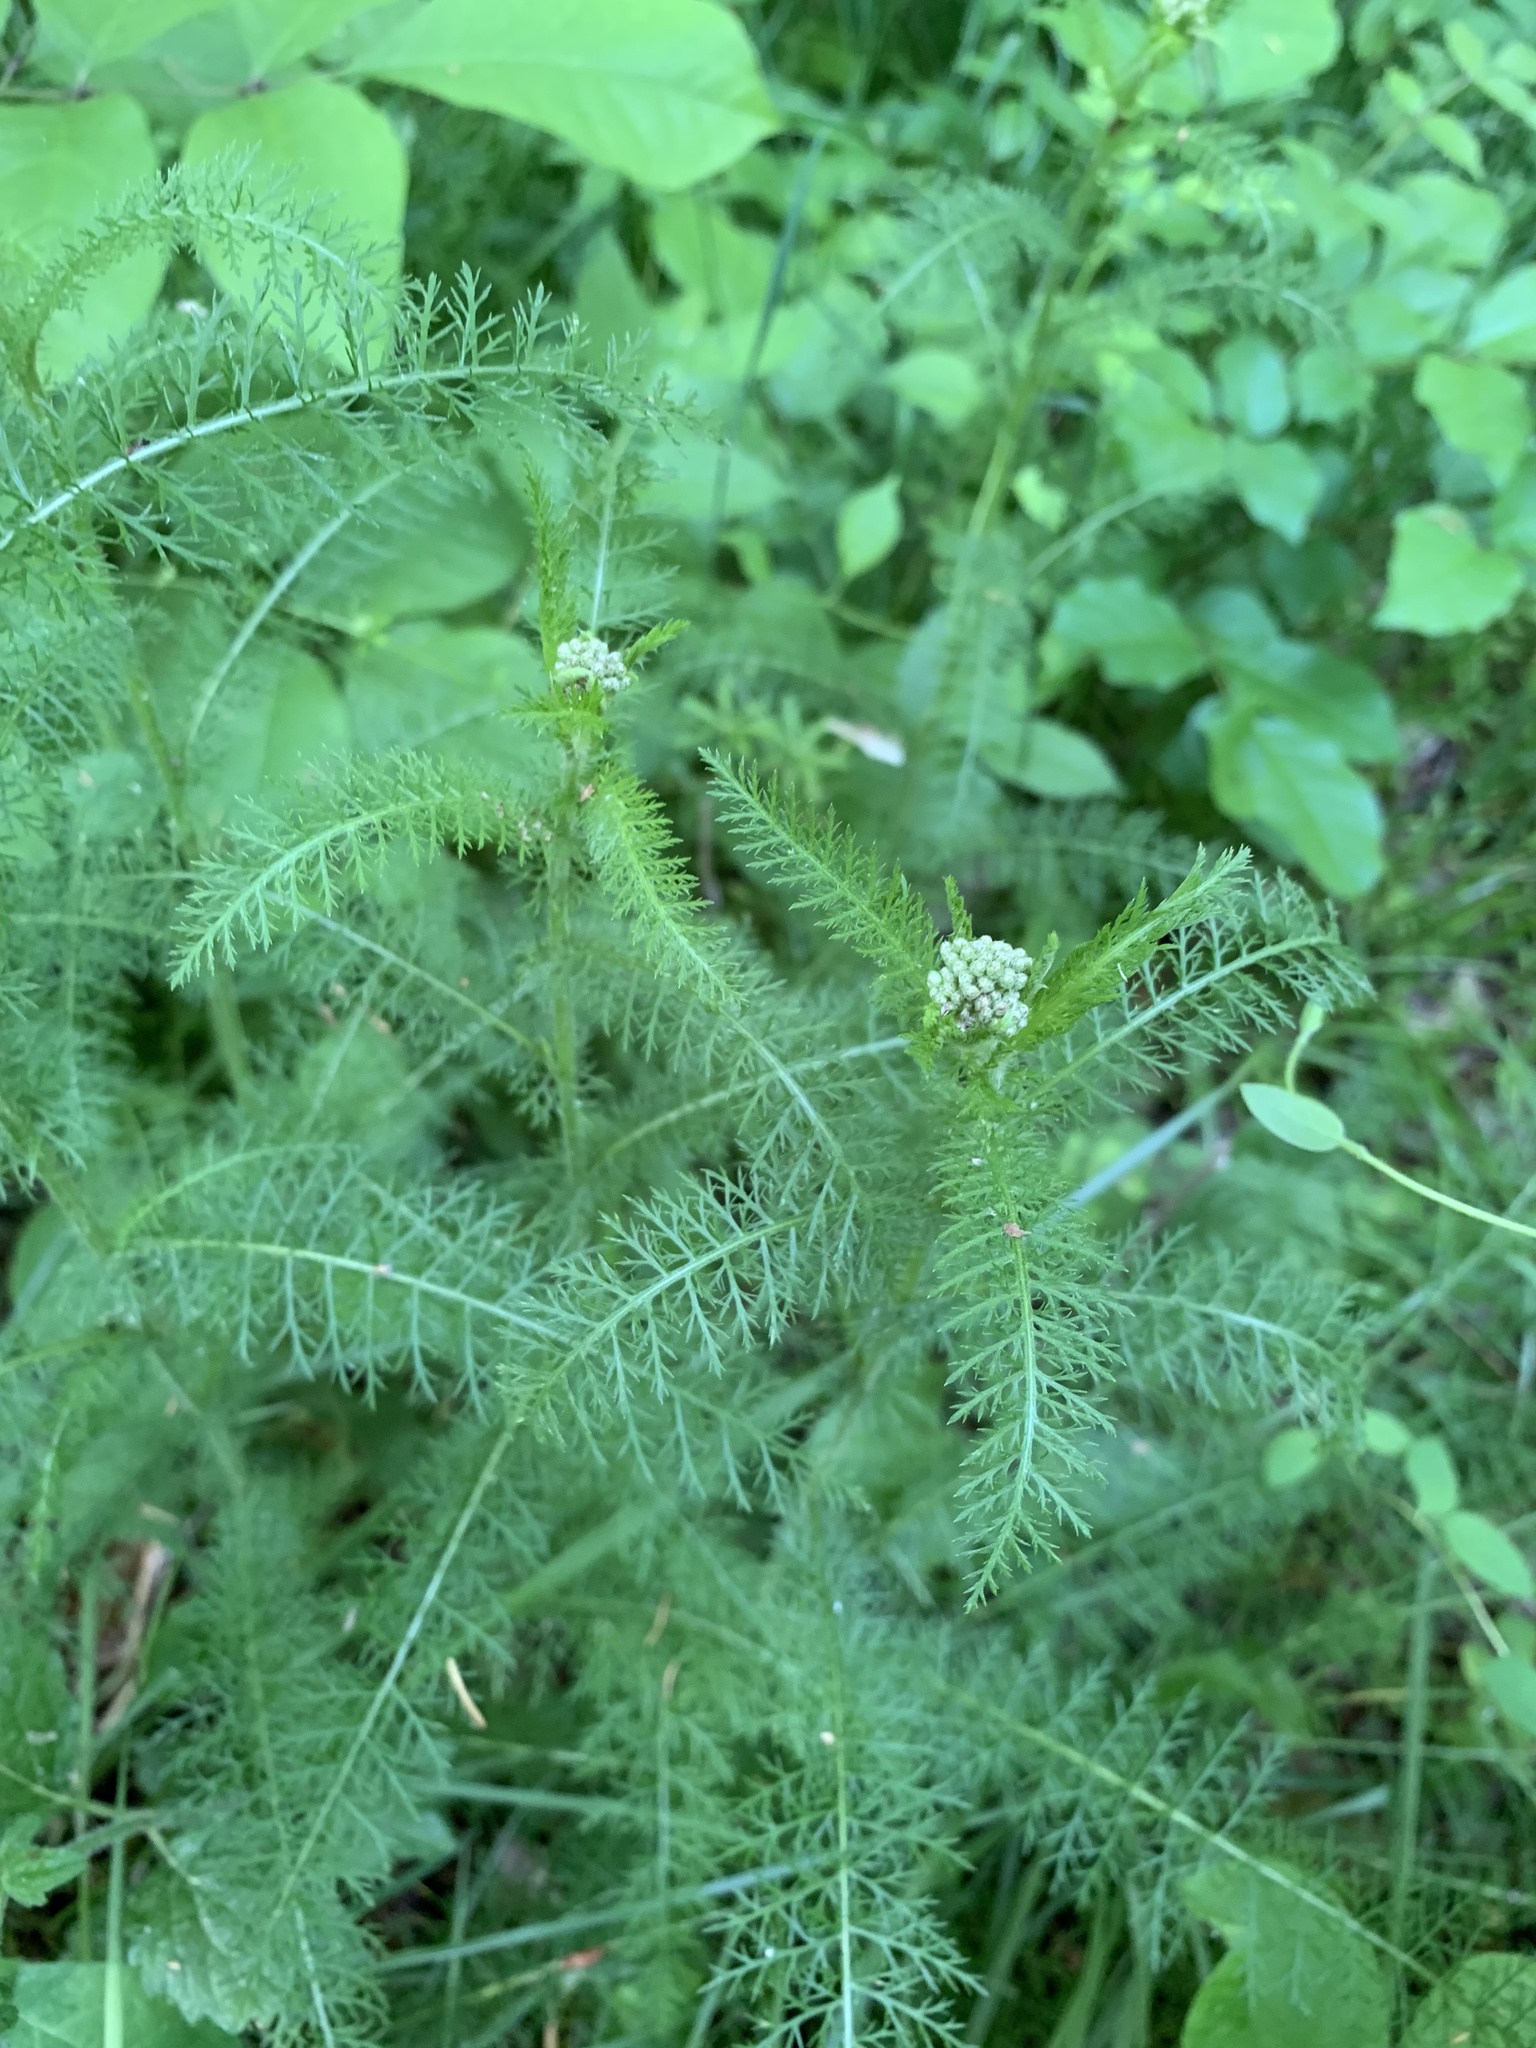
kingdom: Plantae
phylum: Tracheophyta
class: Magnoliopsida
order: Asterales
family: Asteraceae
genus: Achillea
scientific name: Achillea millefolium
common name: Yarrow
